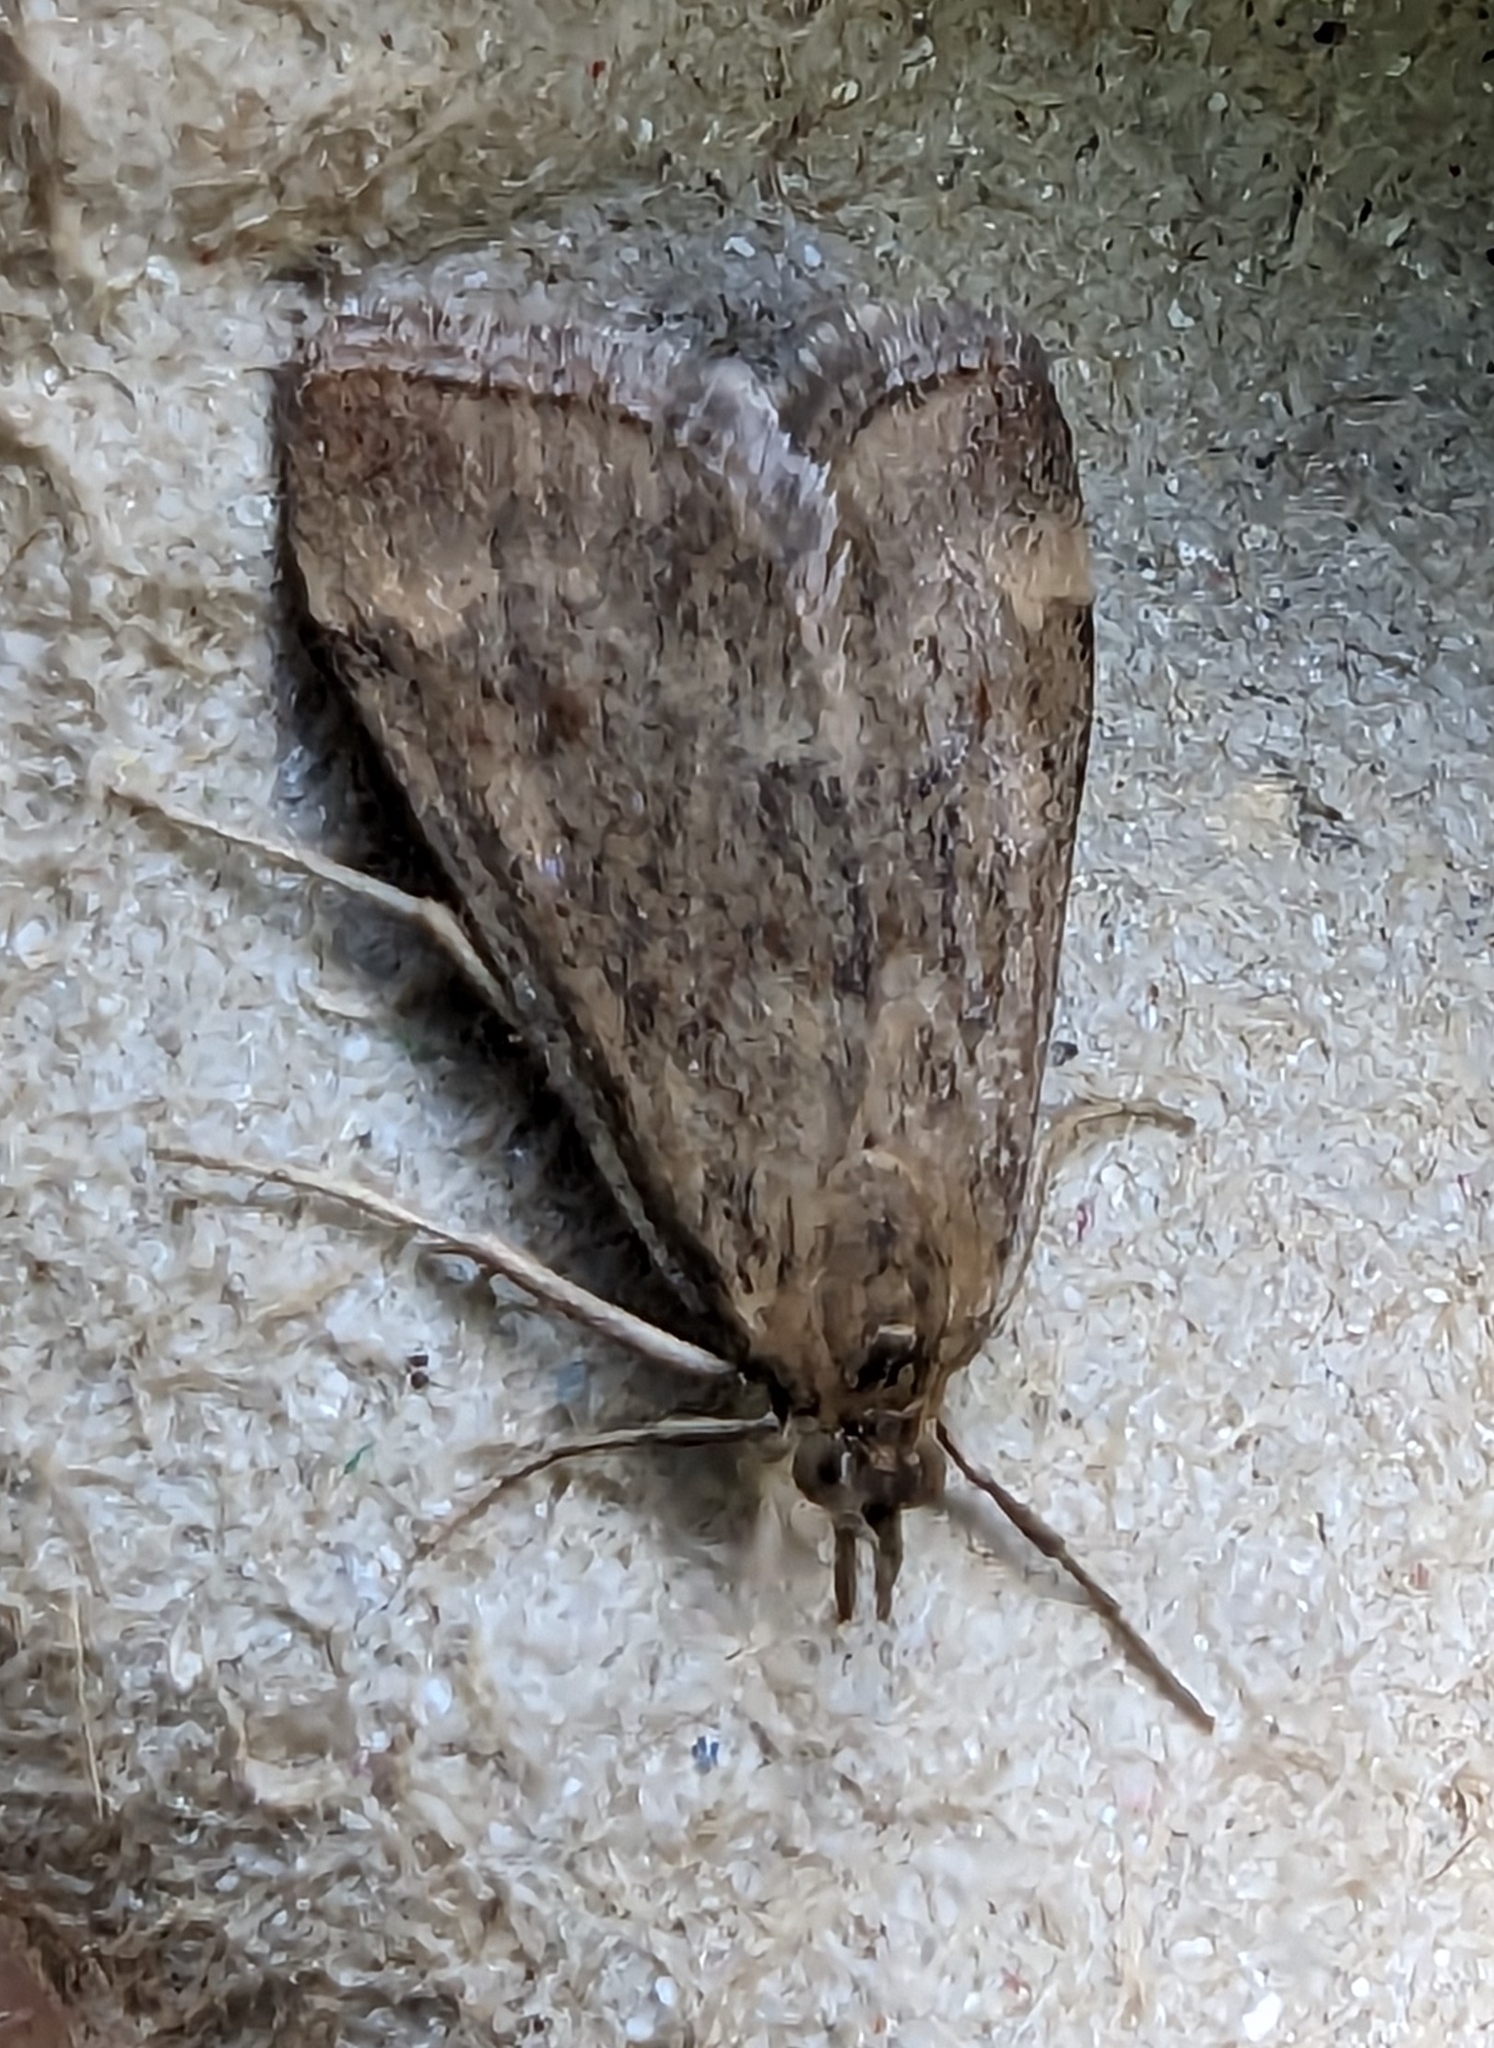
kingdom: Animalia
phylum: Arthropoda
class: Insecta
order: Lepidoptera
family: Crambidae
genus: Pyrausta
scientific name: Pyrausta despicata
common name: Straw-barred pearl
